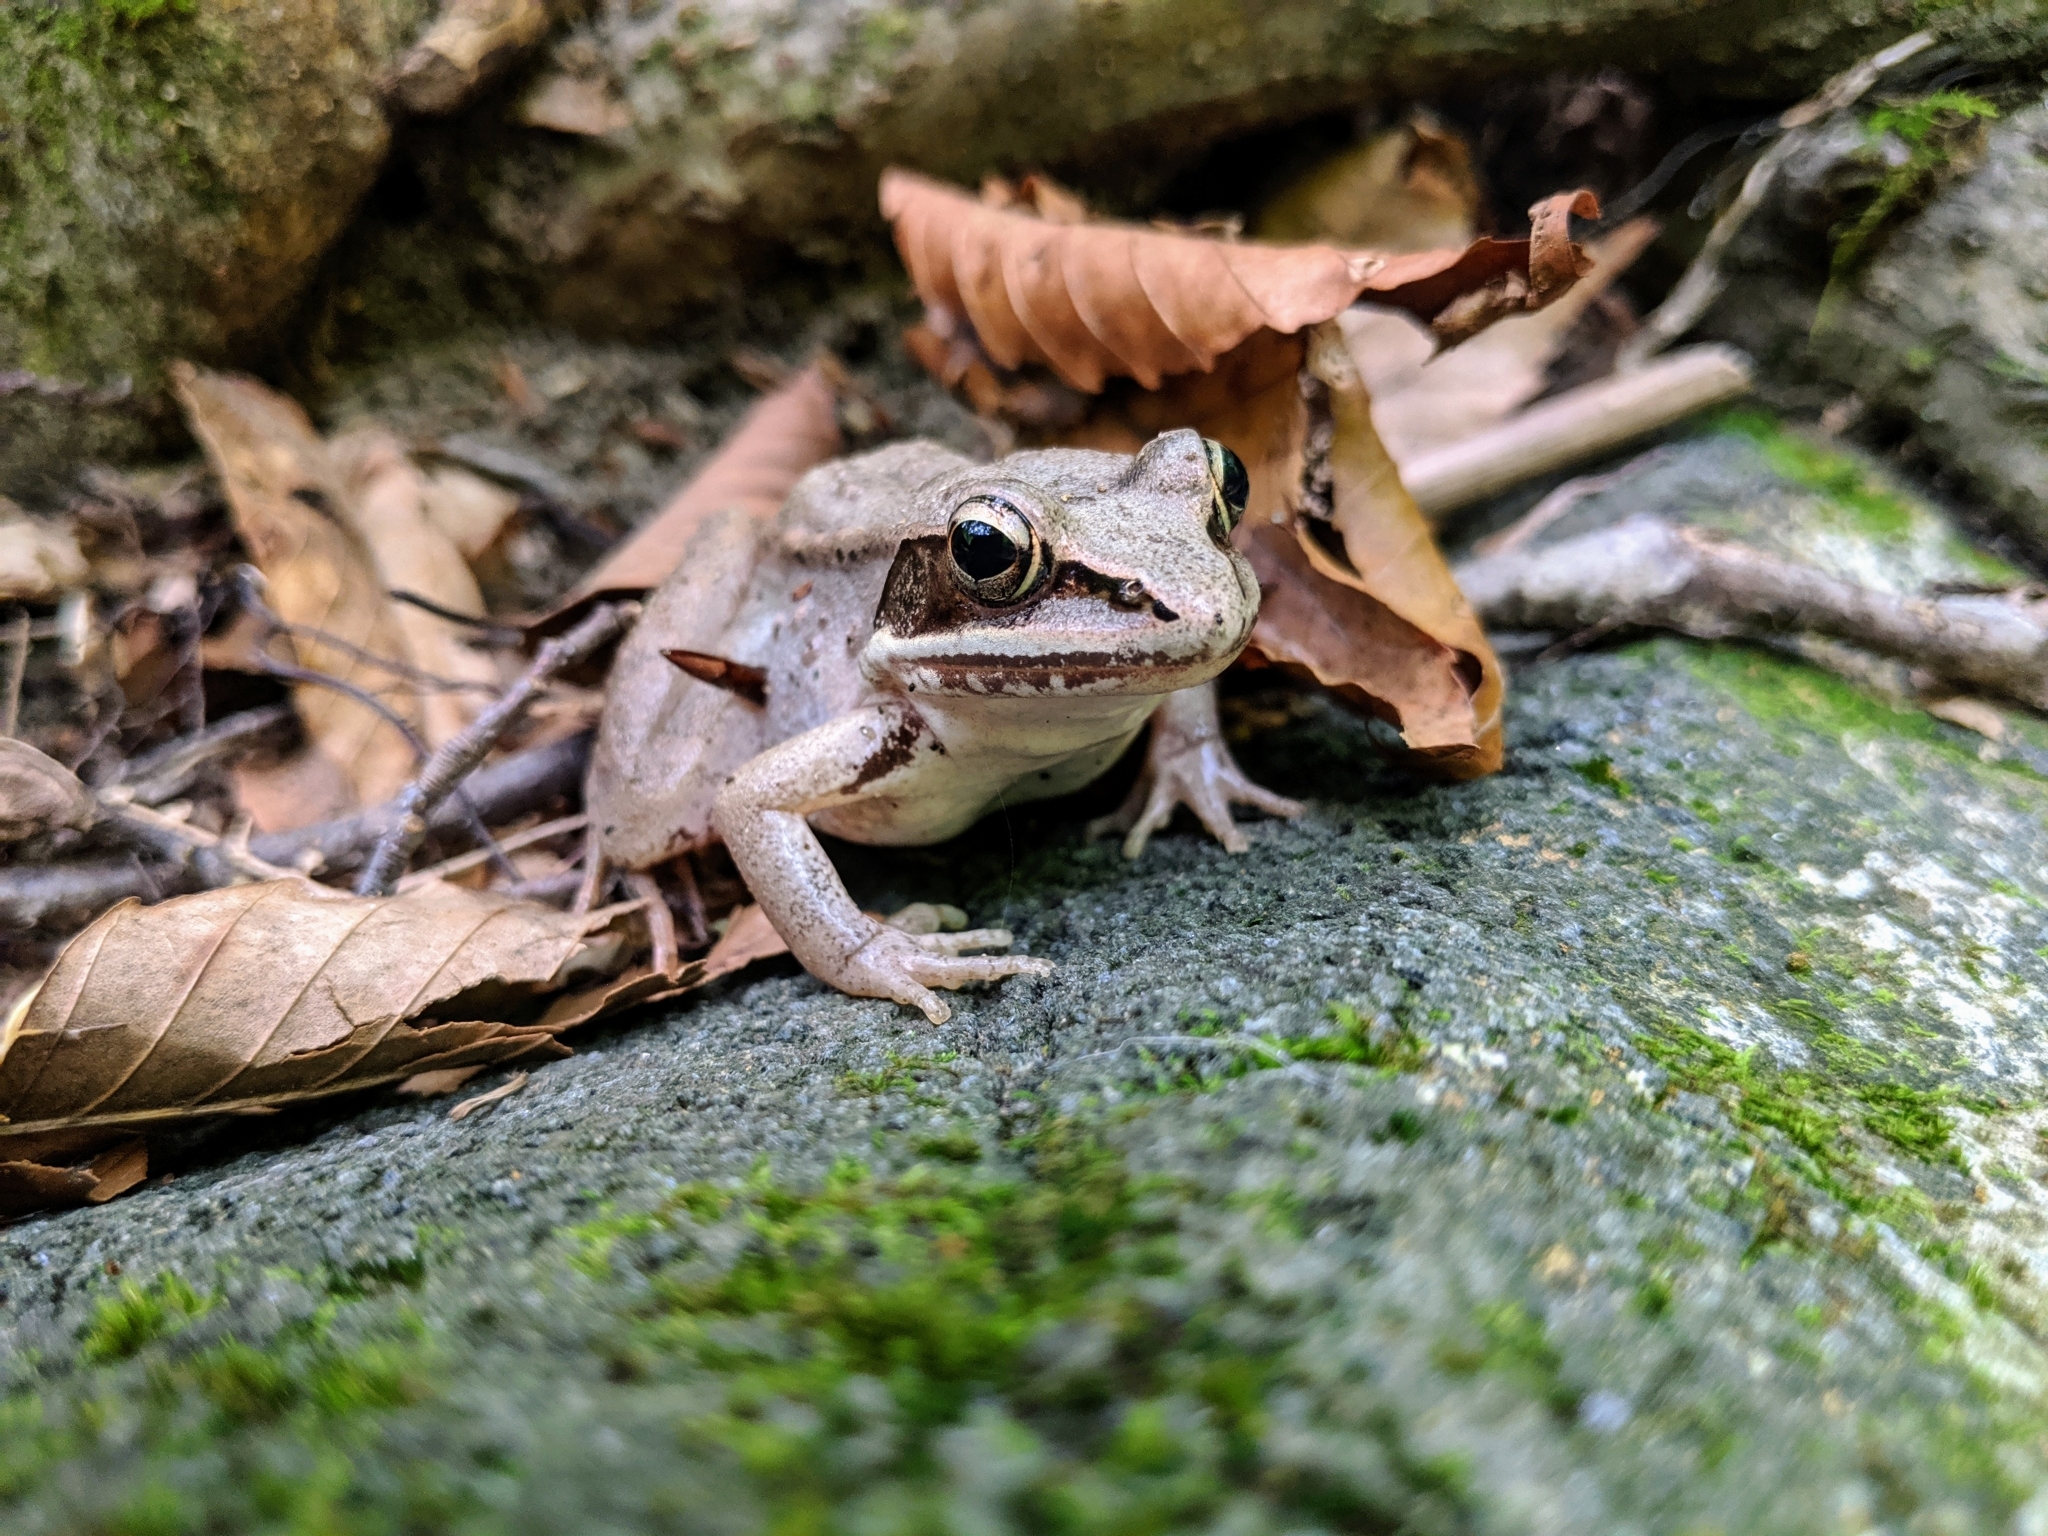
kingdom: Animalia
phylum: Chordata
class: Amphibia
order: Anura
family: Ranidae
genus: Lithobates
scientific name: Lithobates sylvaticus
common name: Wood frog
